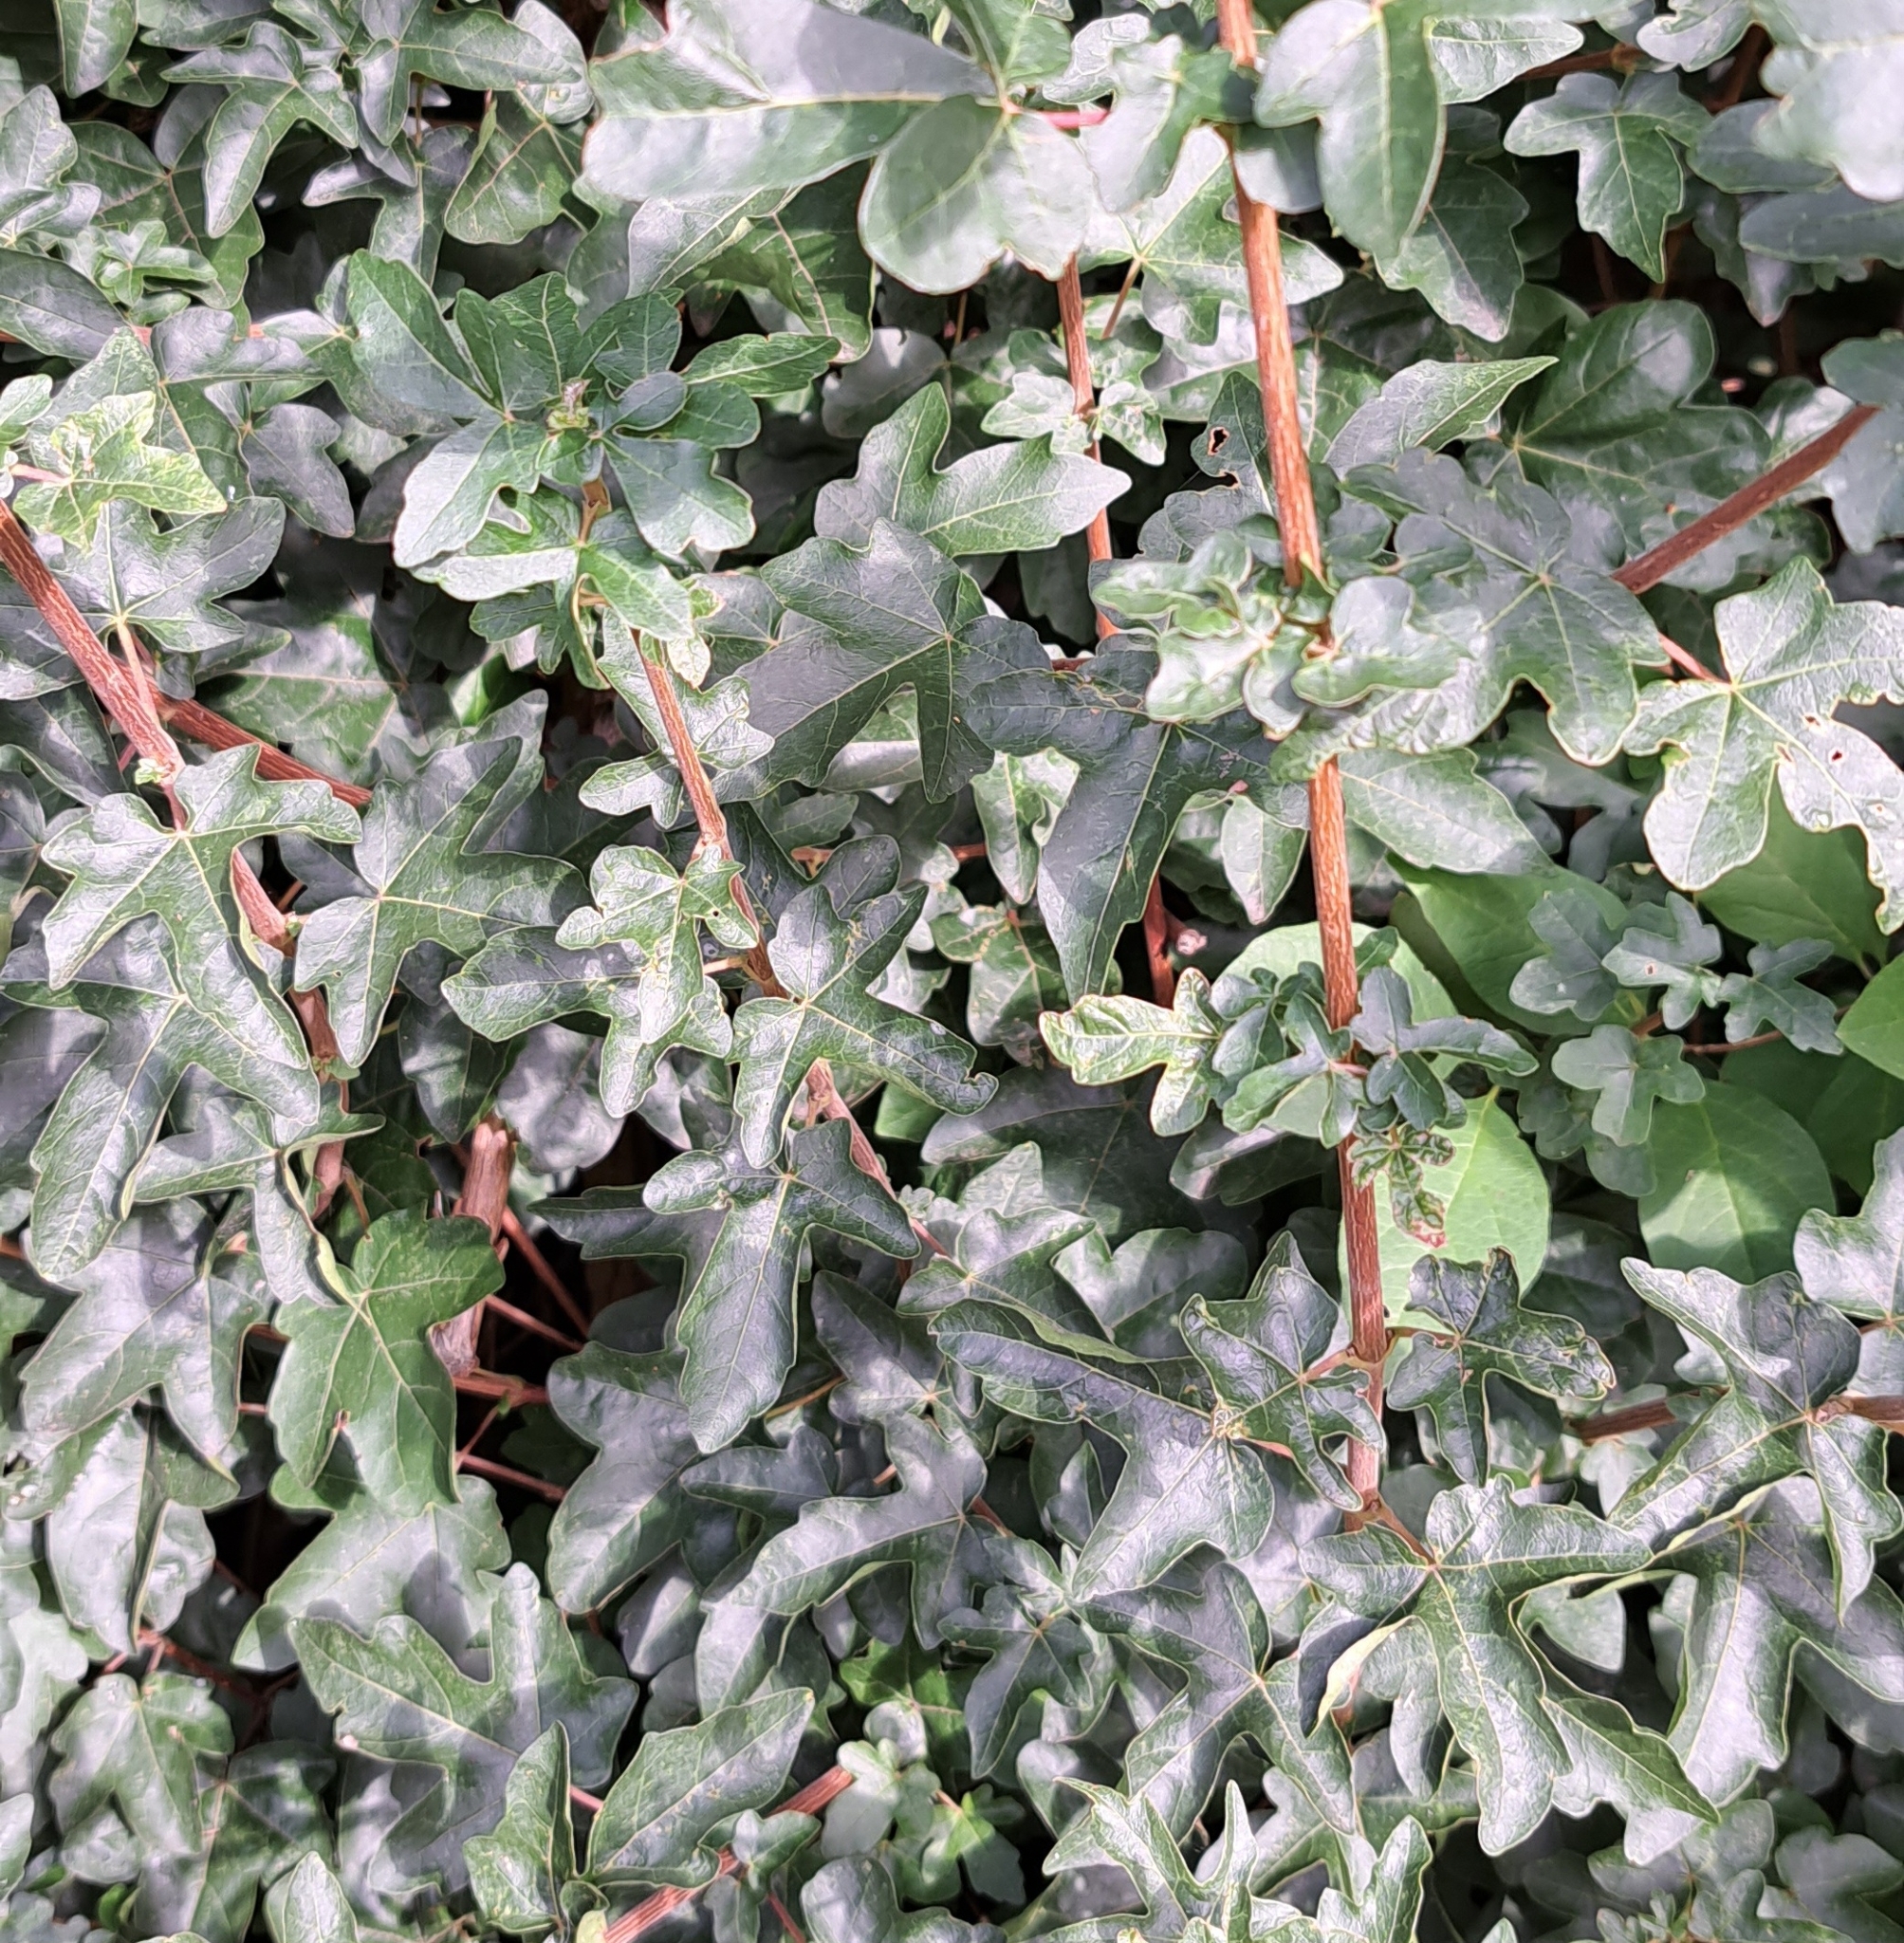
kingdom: Plantae
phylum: Tracheophyta
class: Magnoliopsida
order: Sapindales
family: Sapindaceae
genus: Acer
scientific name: Acer campestre
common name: Field maple
